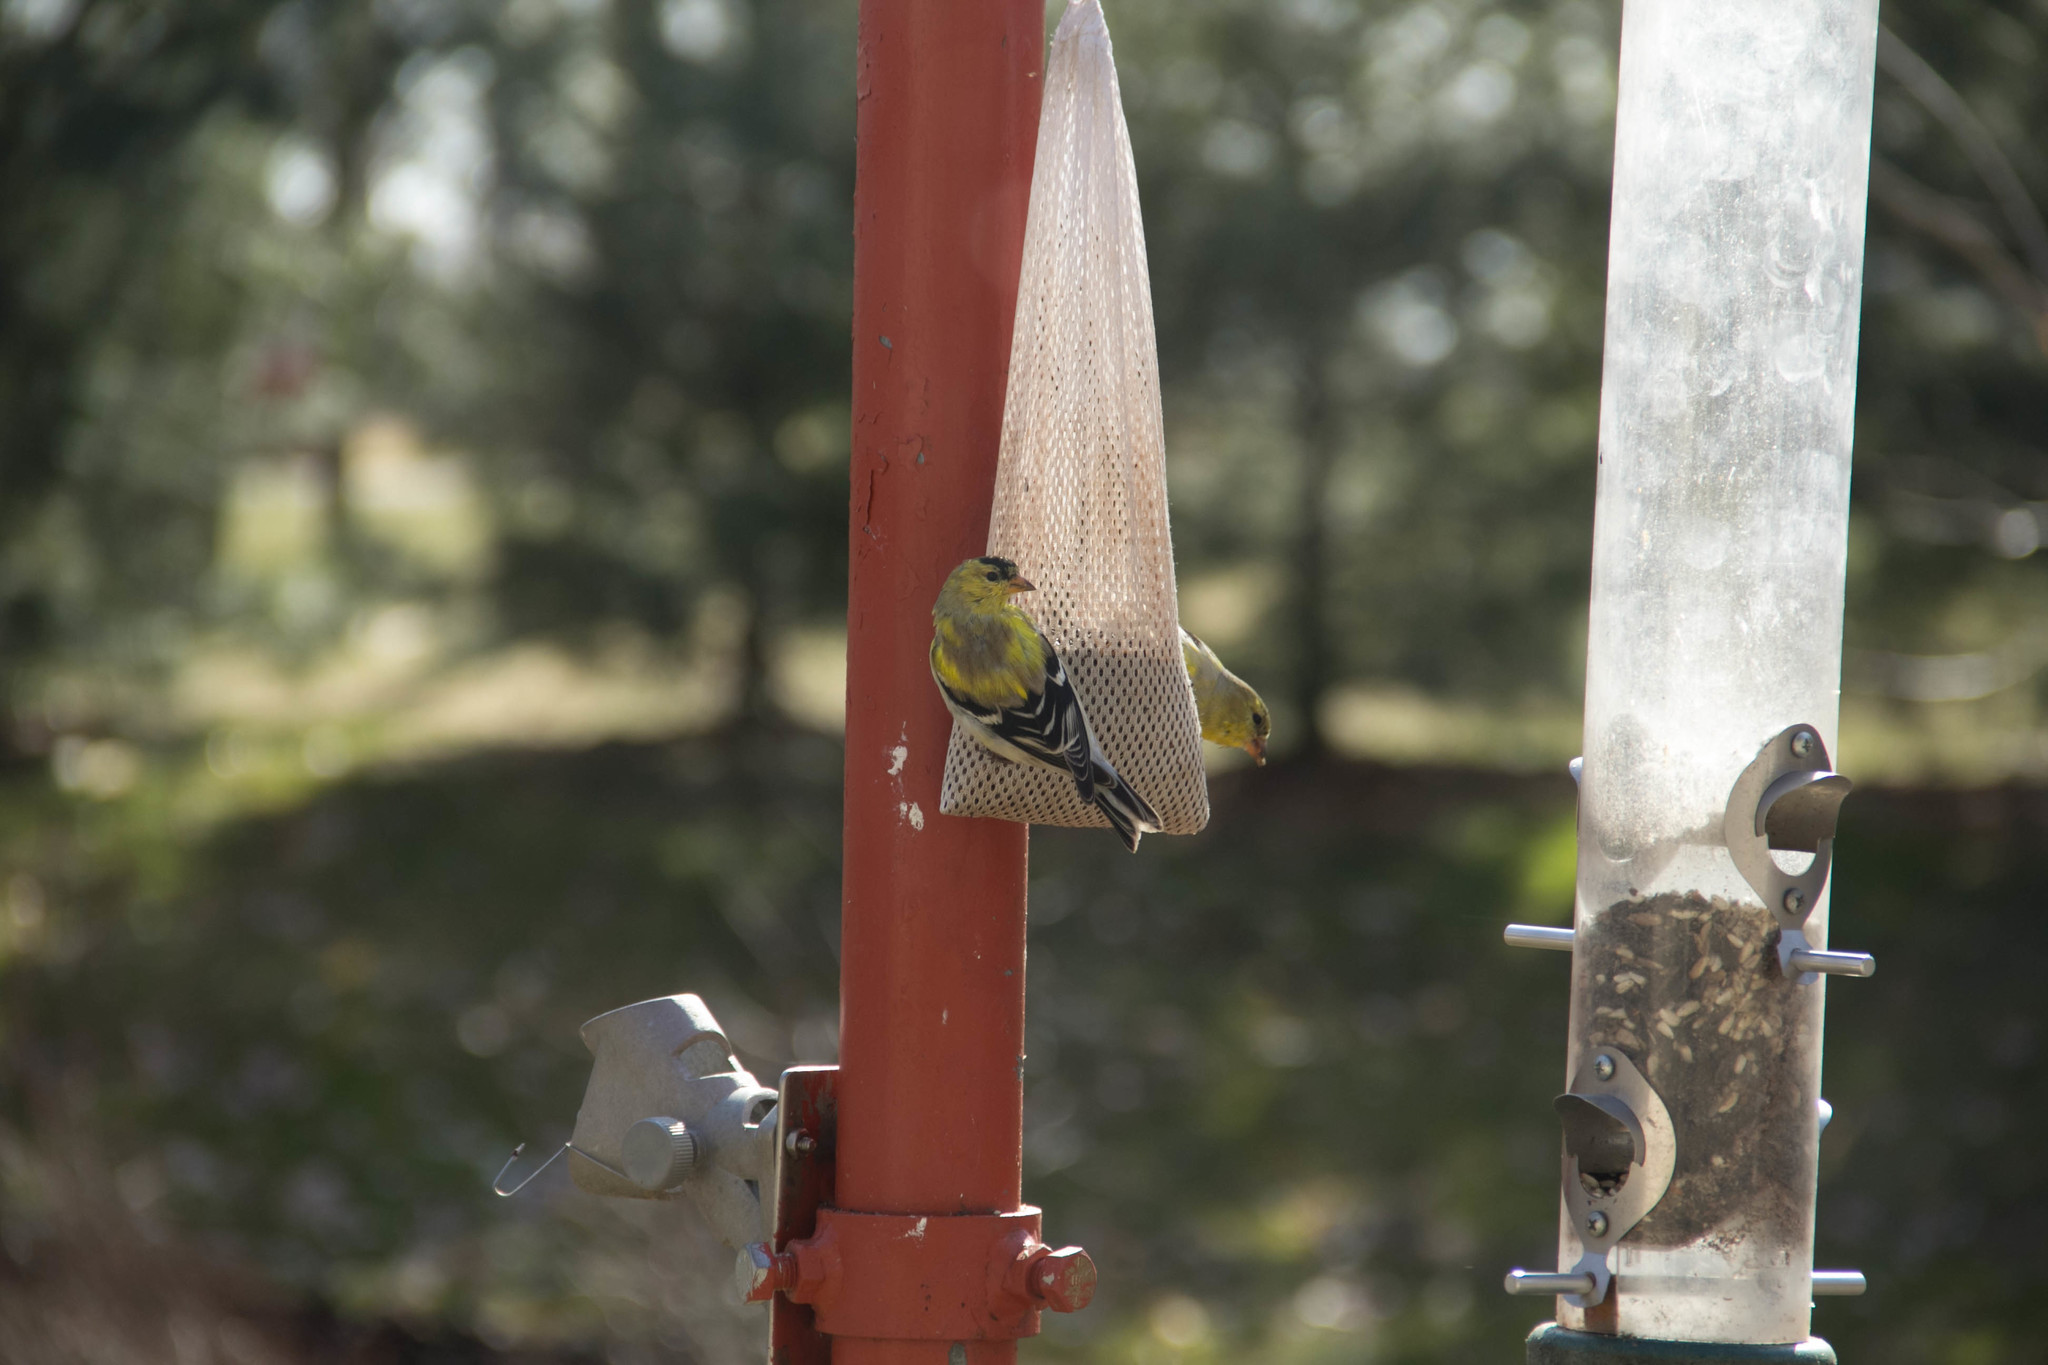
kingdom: Animalia
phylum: Chordata
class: Aves
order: Passeriformes
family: Fringillidae
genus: Spinus
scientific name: Spinus tristis
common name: American goldfinch
